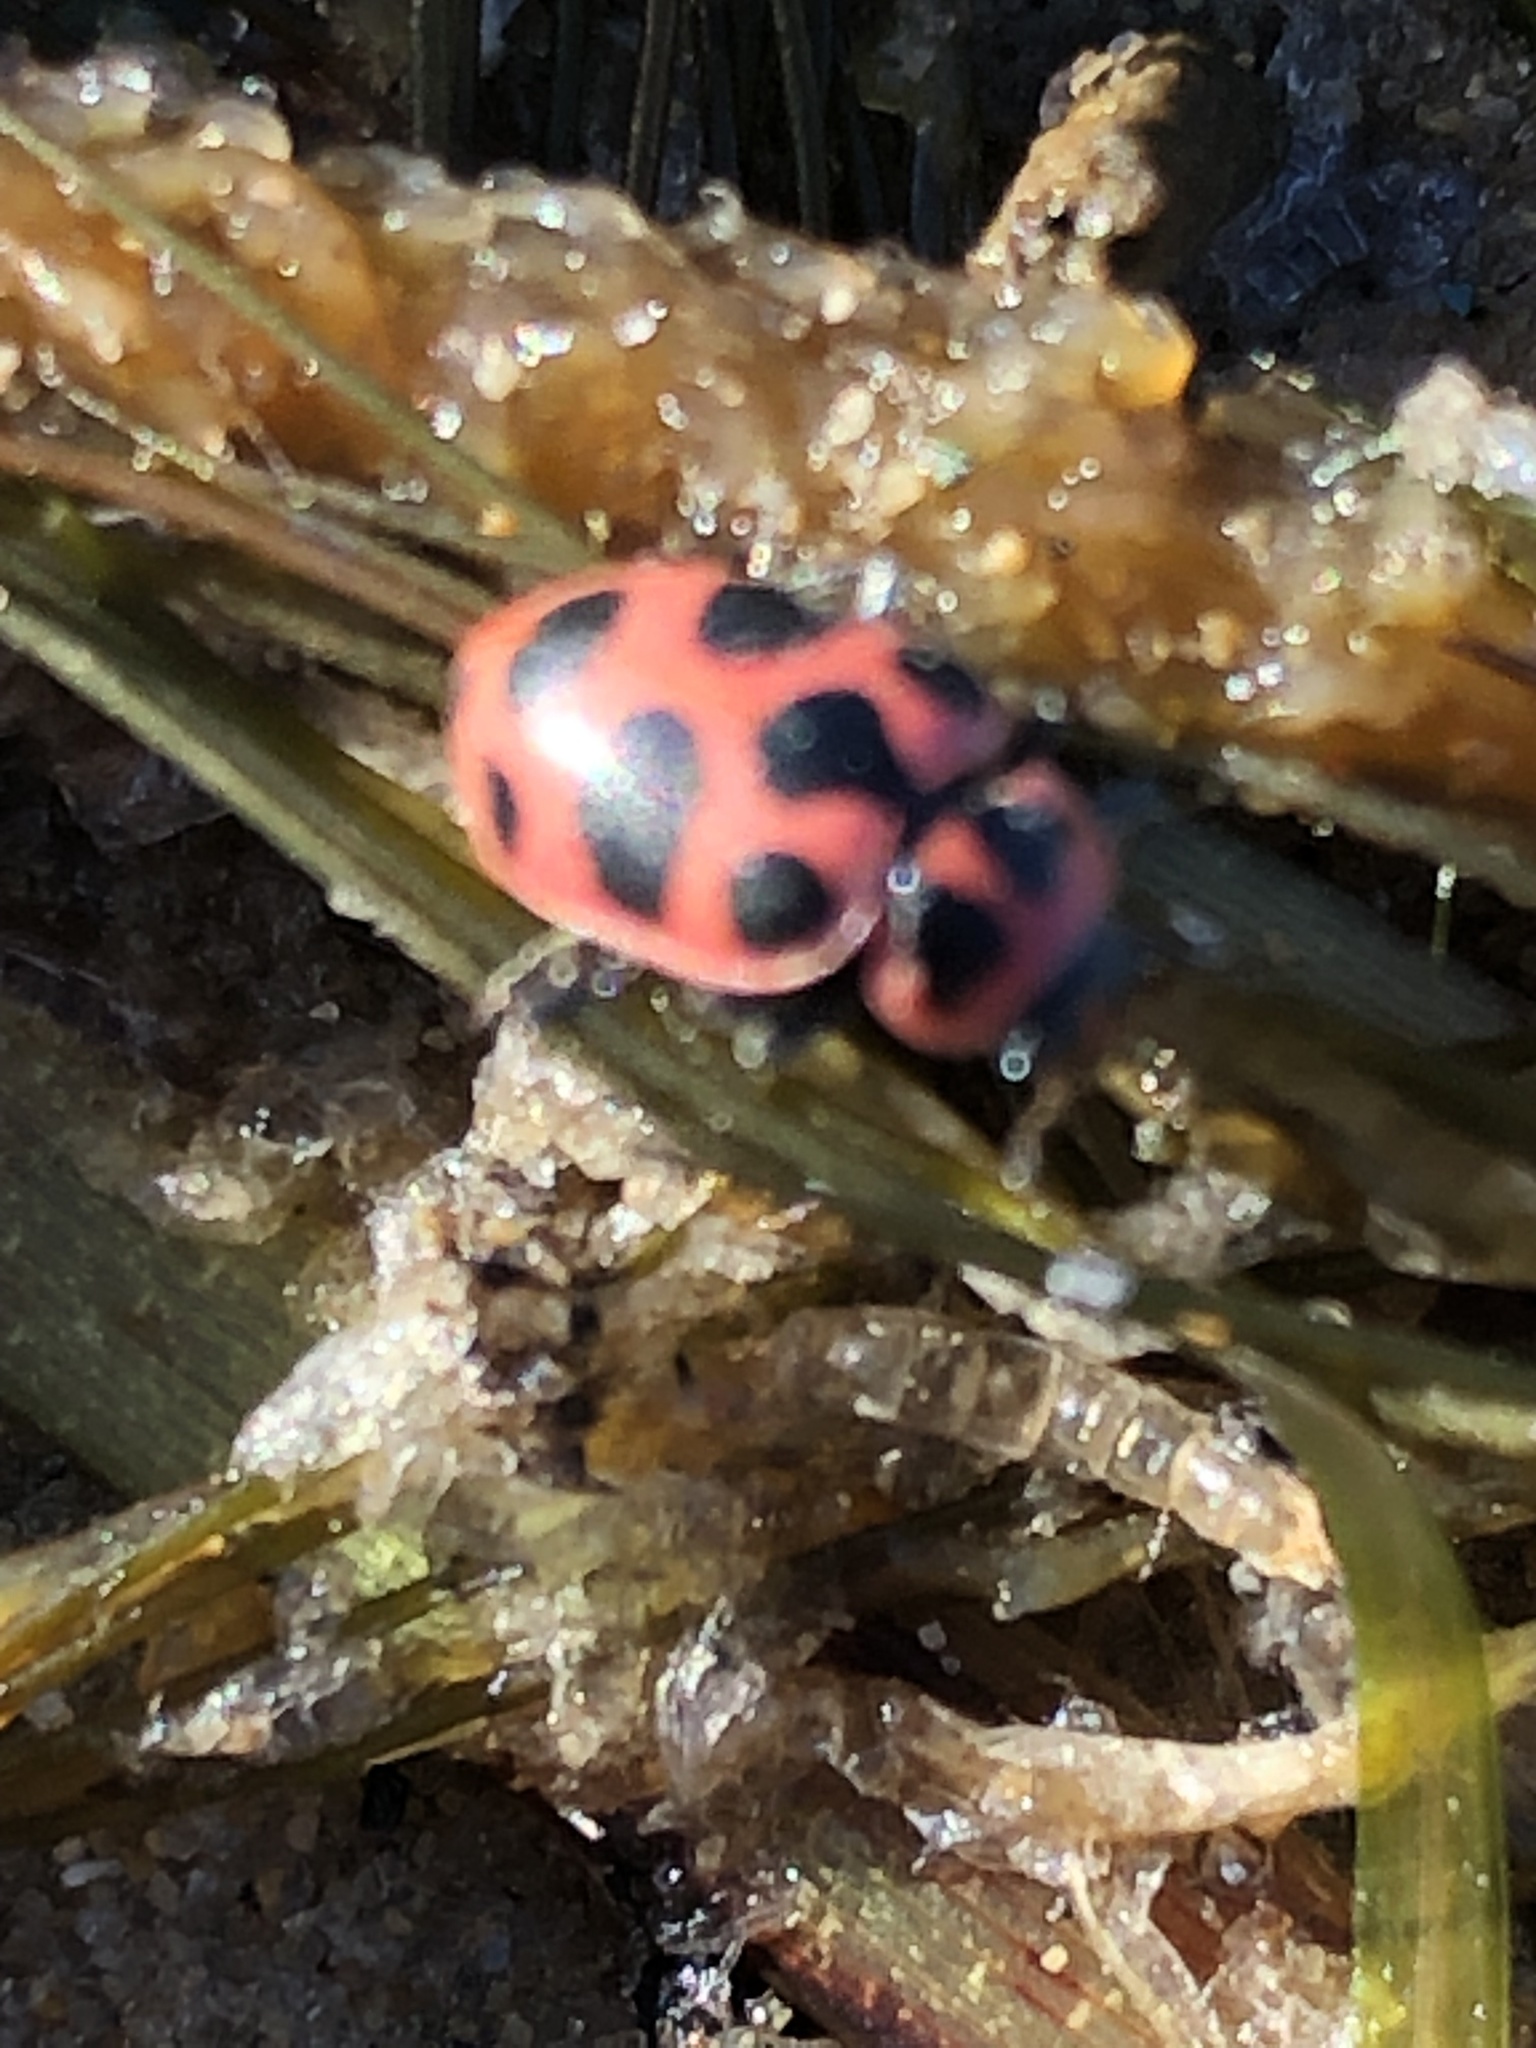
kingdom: Animalia
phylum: Arthropoda
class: Insecta
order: Coleoptera
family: Coccinellidae
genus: Coleomegilla
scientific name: Coleomegilla maculata
